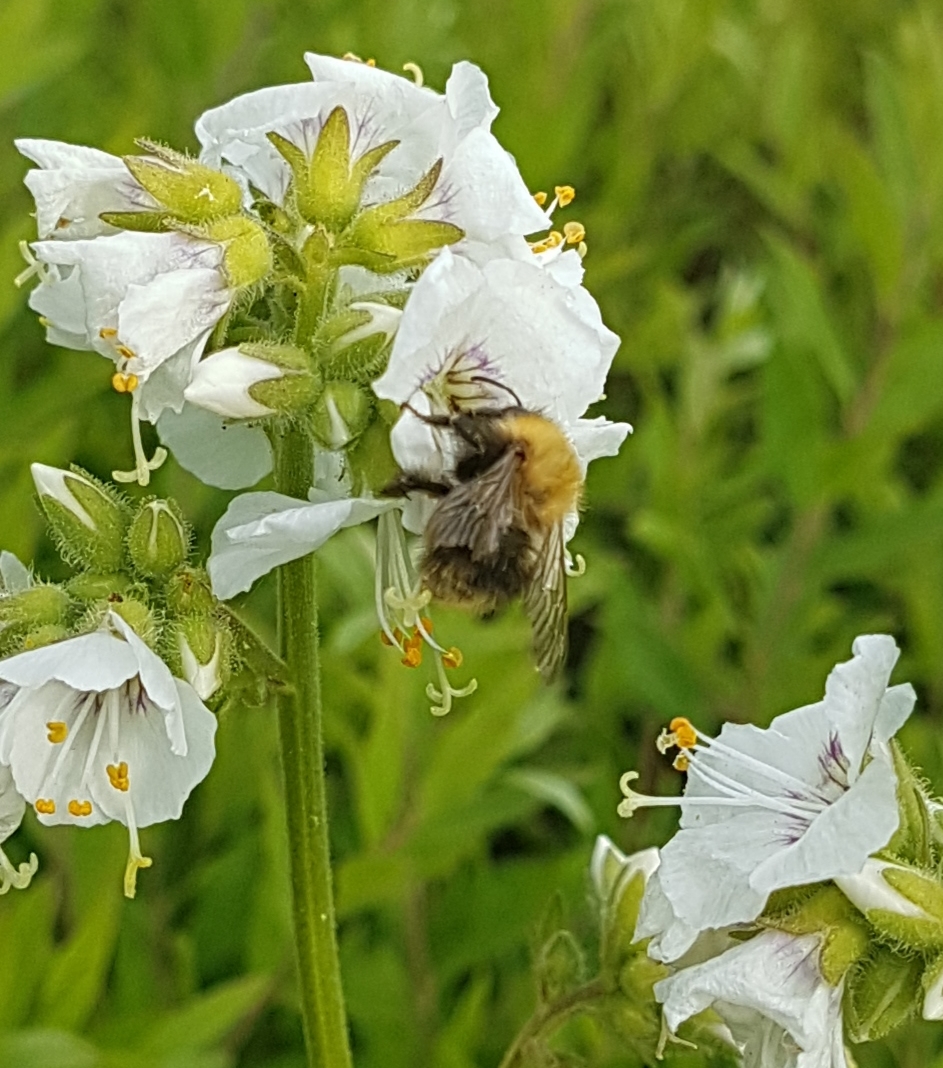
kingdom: Animalia
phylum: Arthropoda
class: Insecta
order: Hymenoptera
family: Apidae
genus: Bombus
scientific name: Bombus pascuorum
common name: Common carder bee
